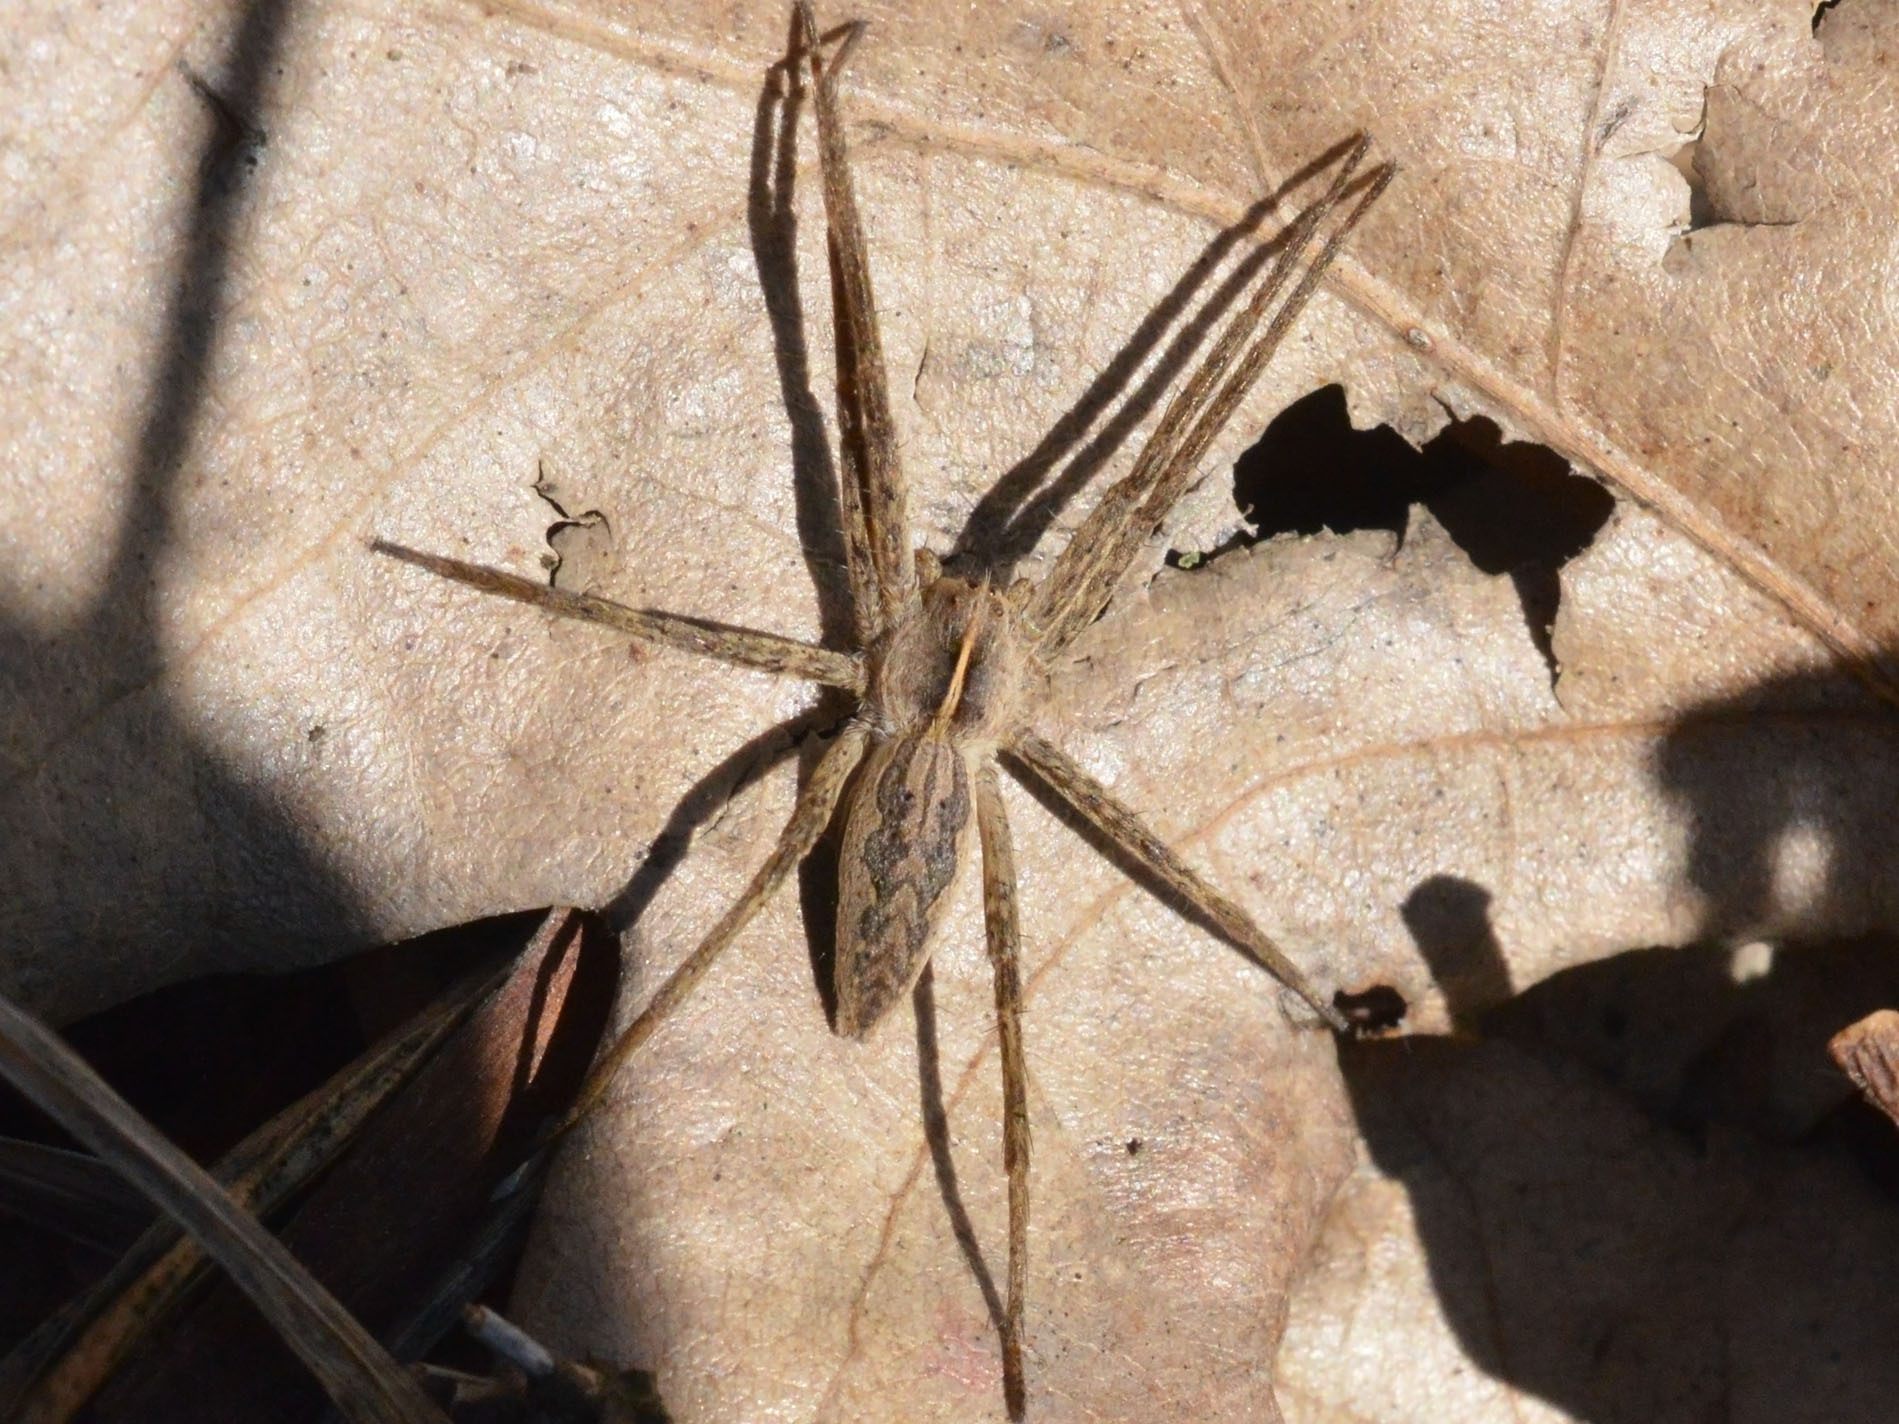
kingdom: Animalia
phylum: Arthropoda
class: Arachnida
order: Araneae
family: Pisauridae
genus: Pisaura
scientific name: Pisaura
